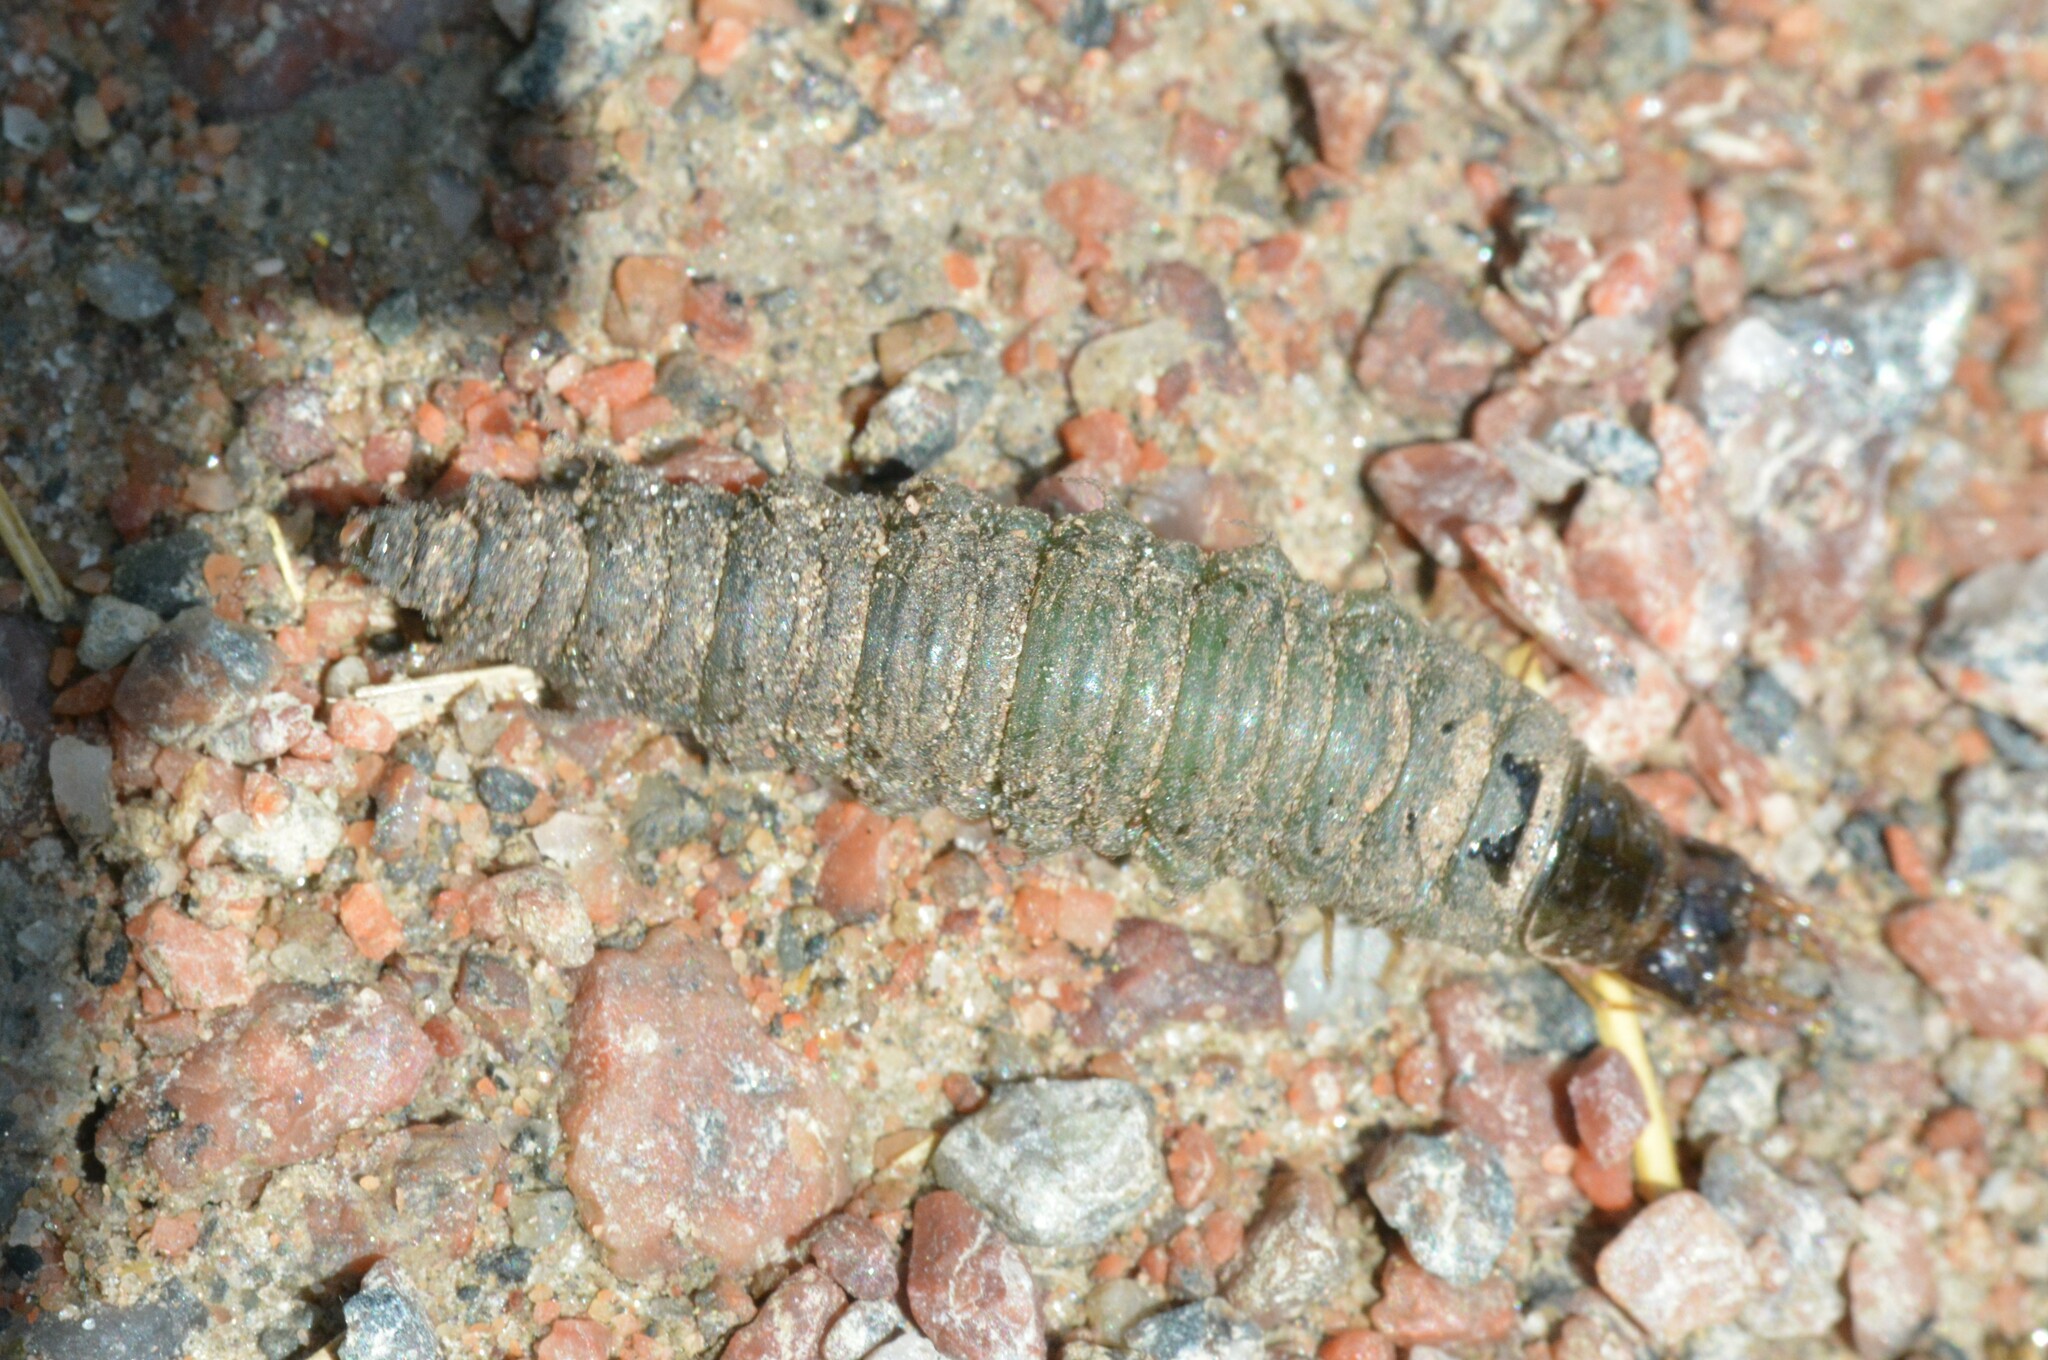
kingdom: Animalia
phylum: Arthropoda
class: Insecta
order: Coleoptera
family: Hydrophilidae
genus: Hydrochara
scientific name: Hydrochara
